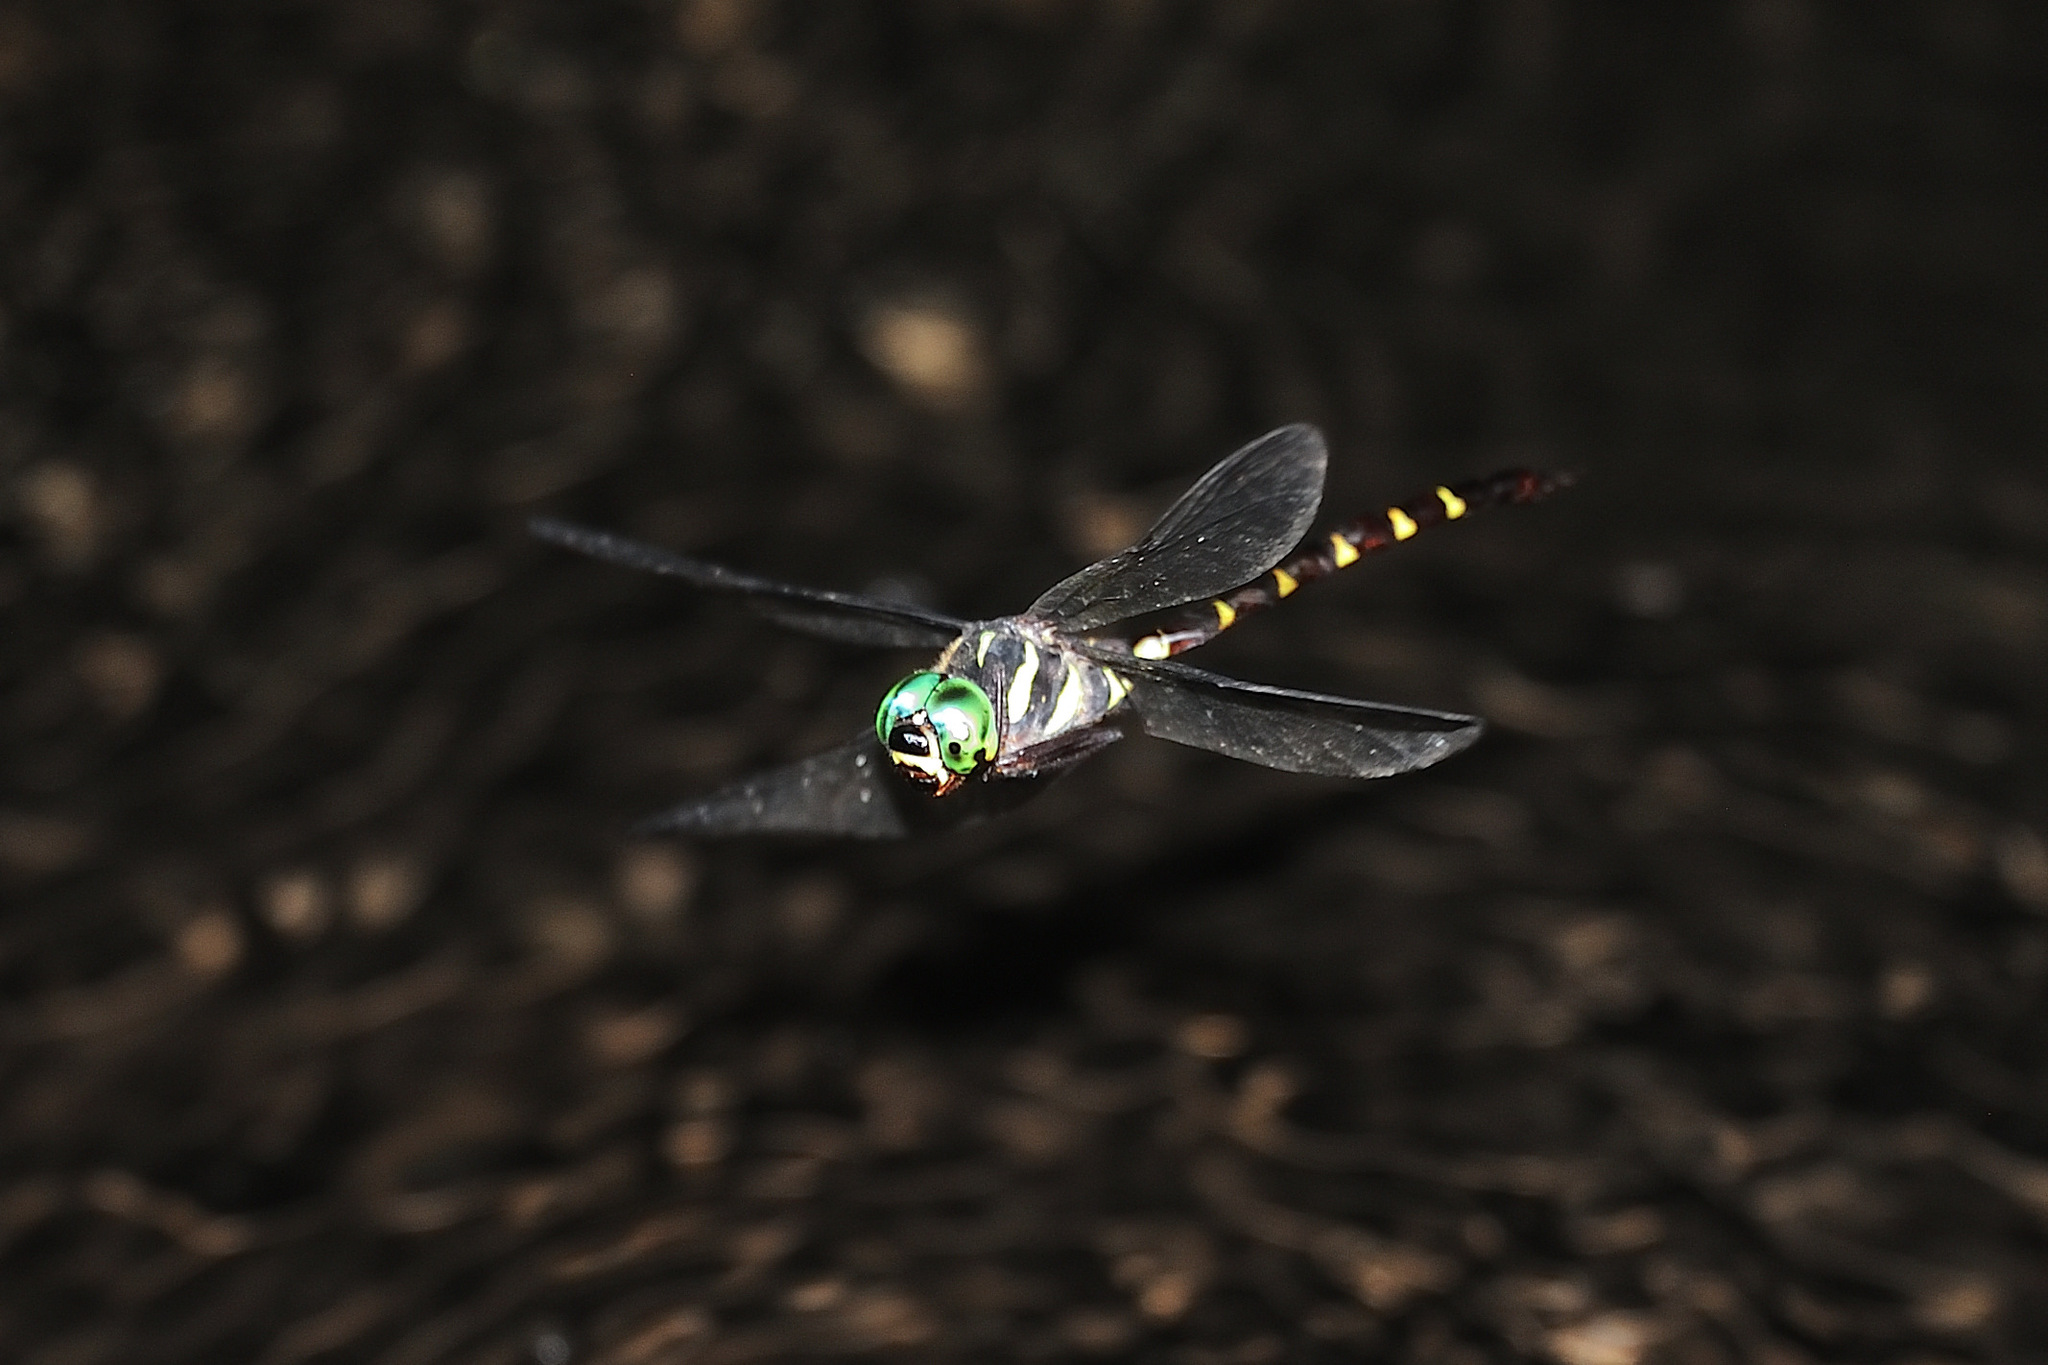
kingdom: Animalia
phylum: Arthropoda
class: Insecta
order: Odonata
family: Aeshnidae
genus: Boyeria
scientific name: Boyeria maclachlani
